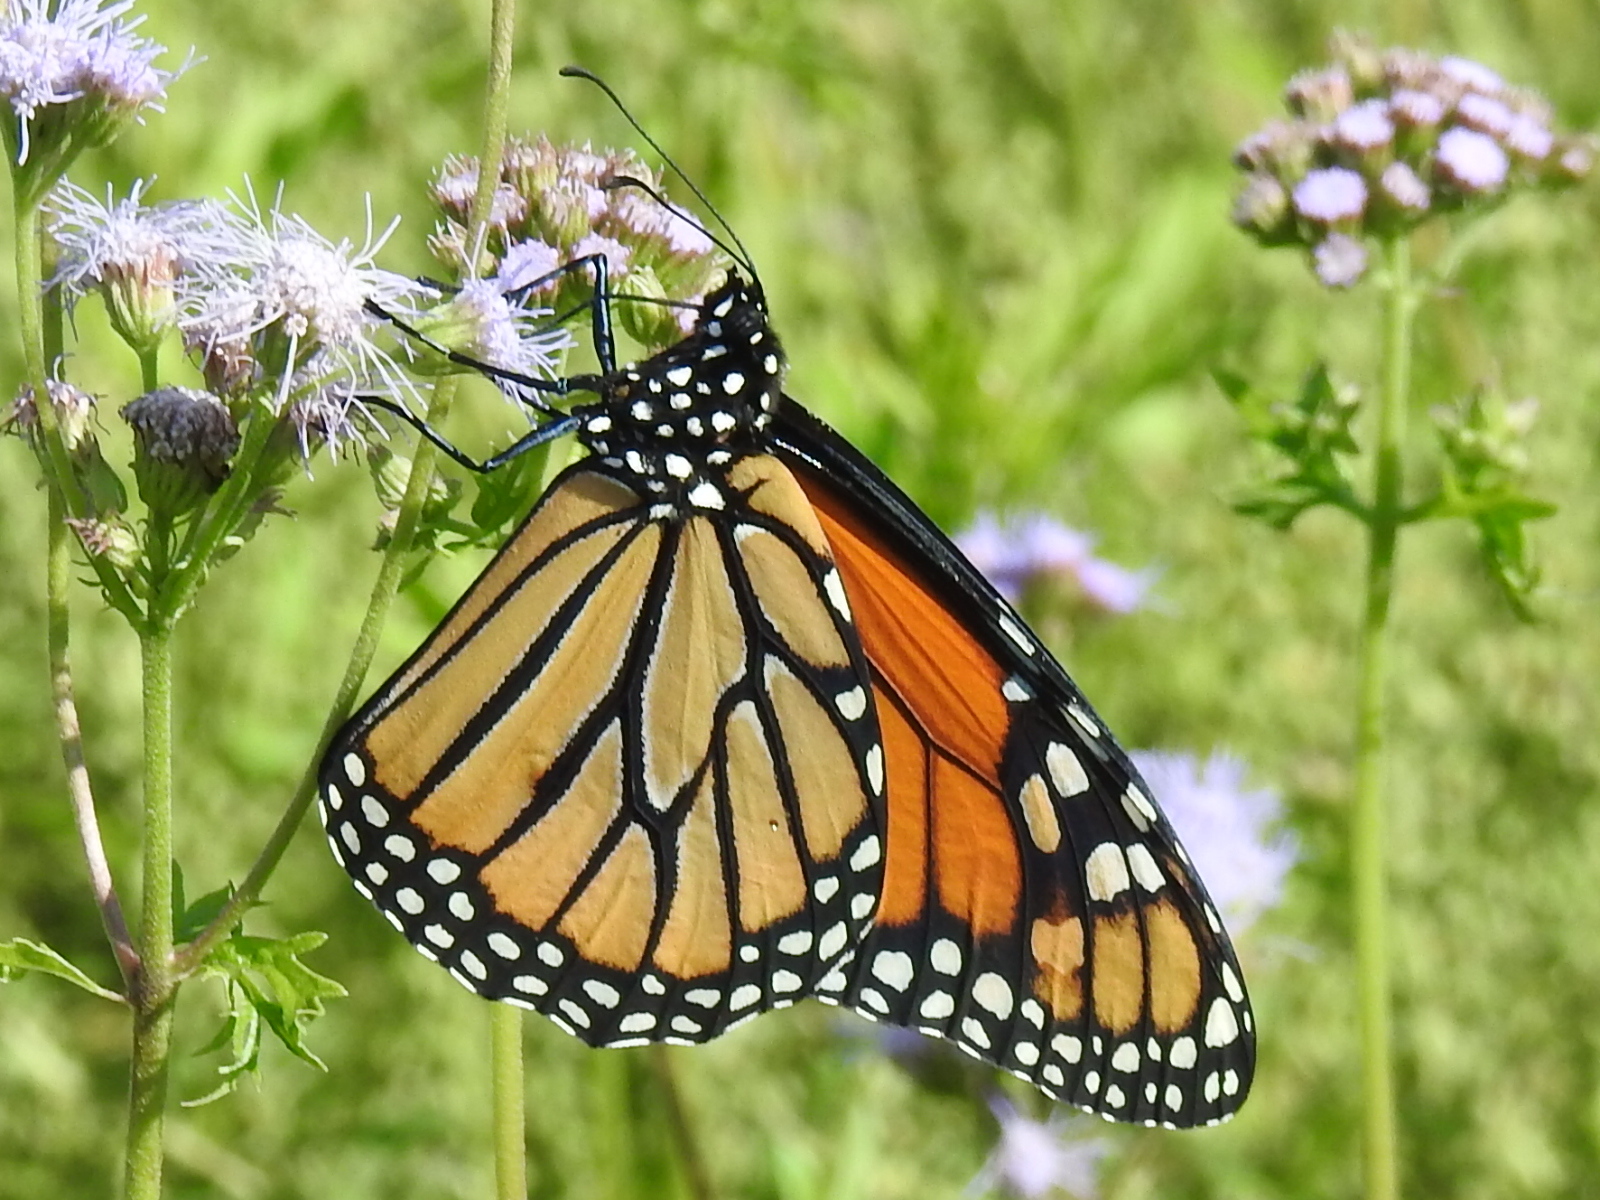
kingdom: Animalia
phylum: Arthropoda
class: Insecta
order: Lepidoptera
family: Nymphalidae
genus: Danaus
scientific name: Danaus plexippus
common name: Monarch
